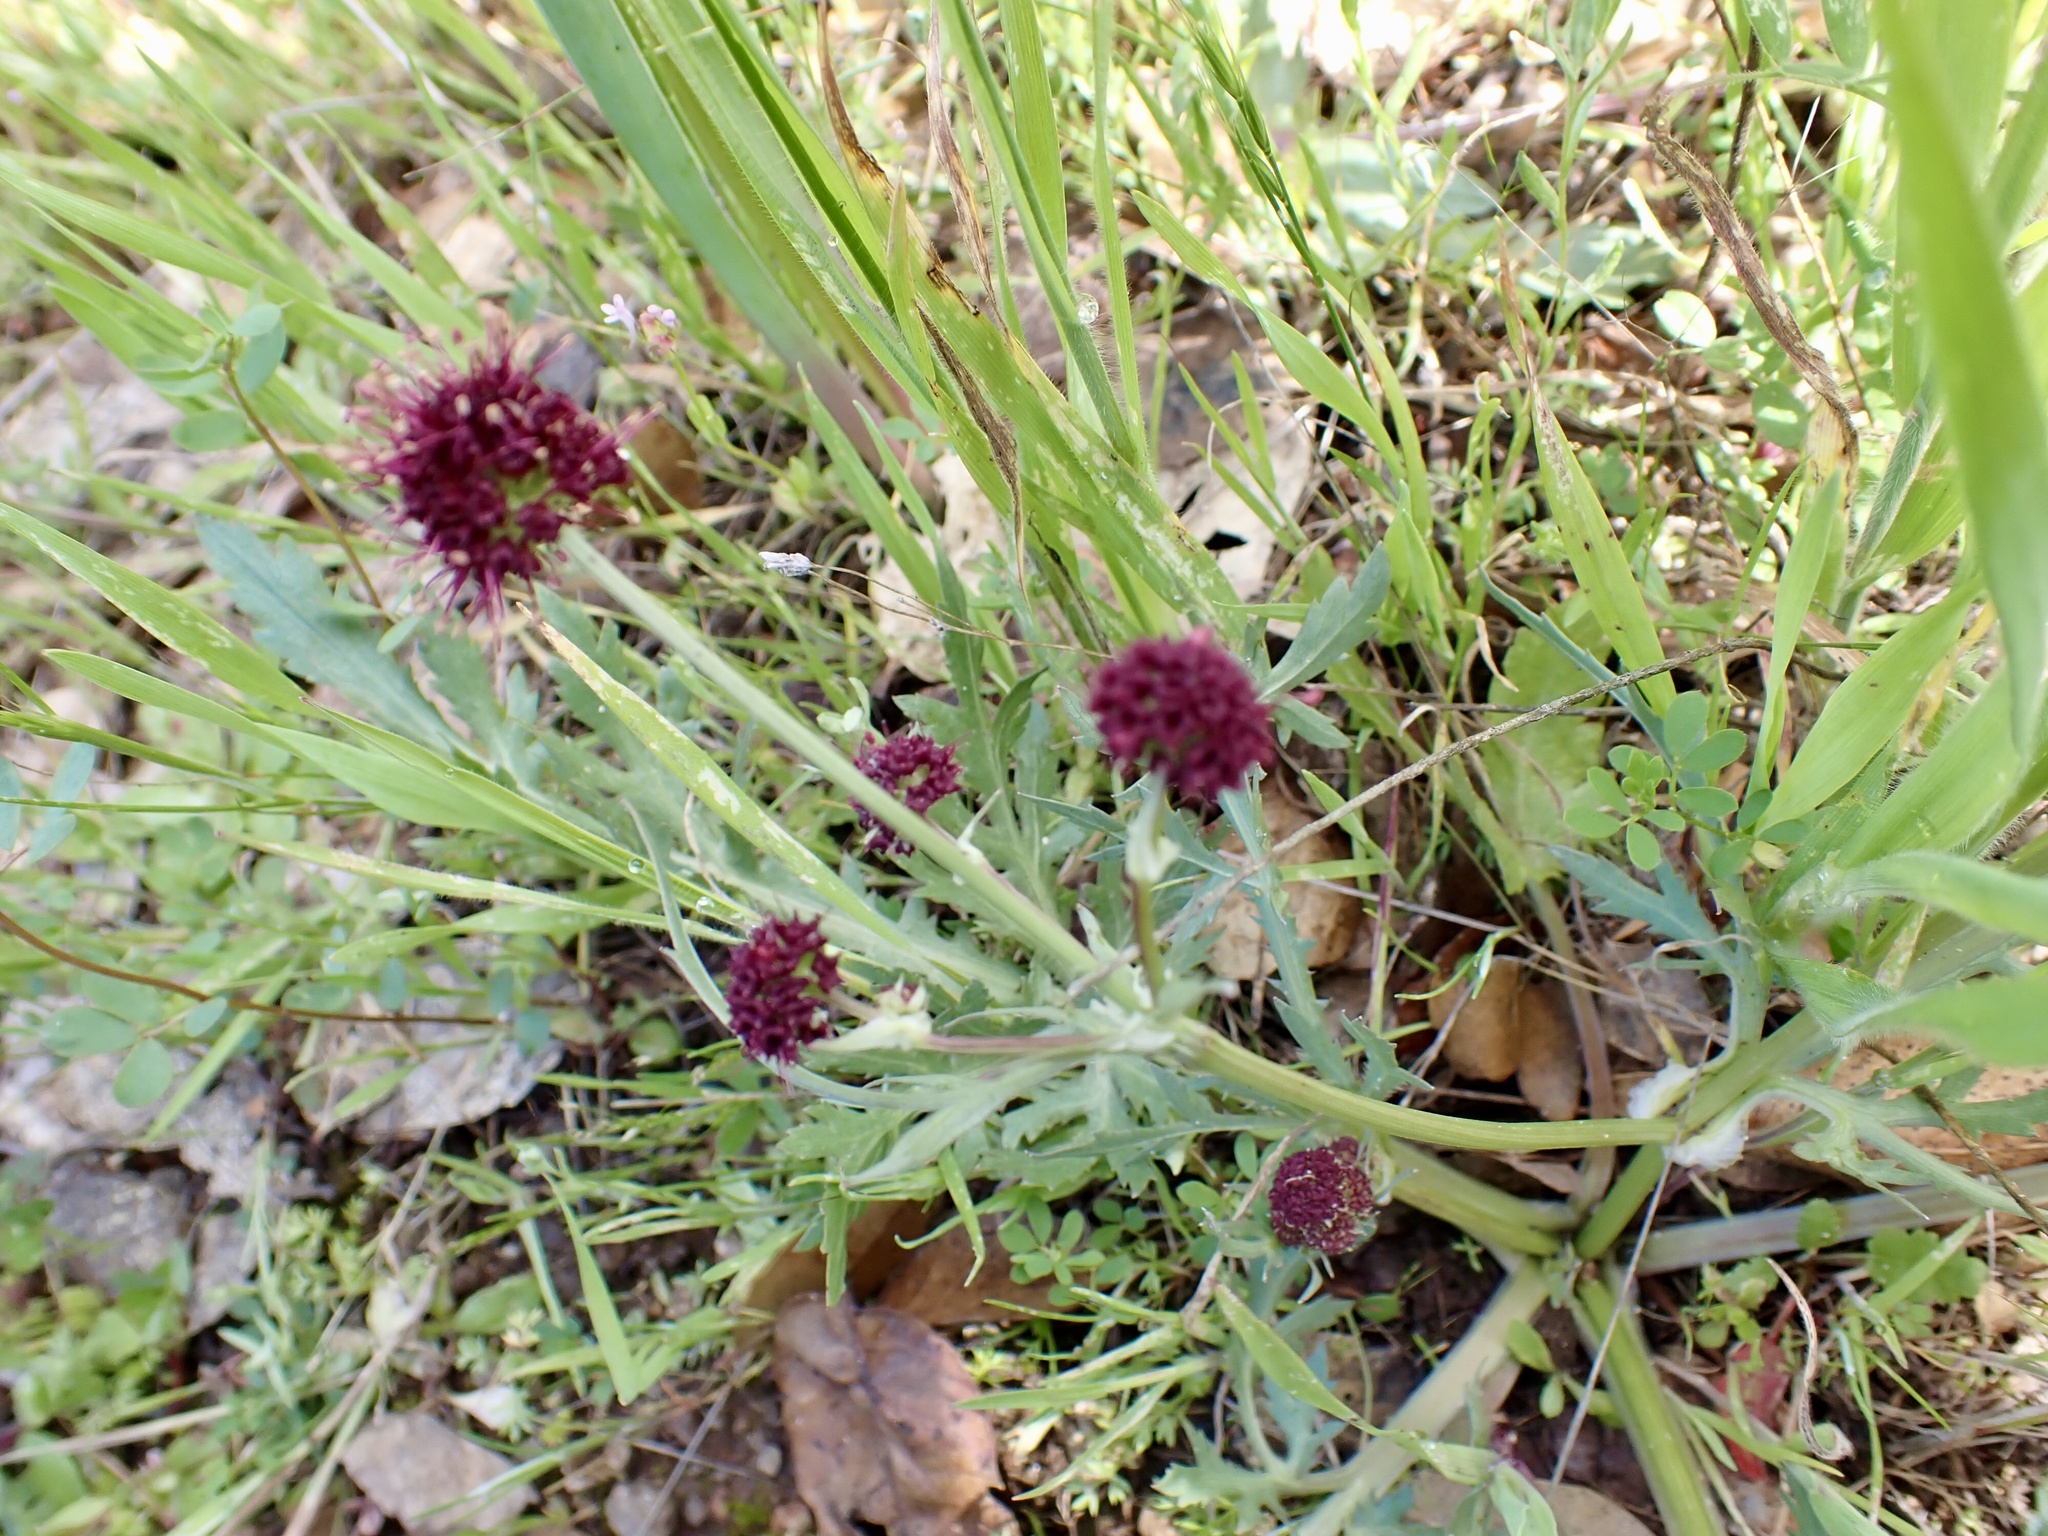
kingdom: Plantae
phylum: Tracheophyta
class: Magnoliopsida
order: Apiales
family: Apiaceae
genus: Sanicula
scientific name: Sanicula bipinnatifida
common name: Shoe-buttons
